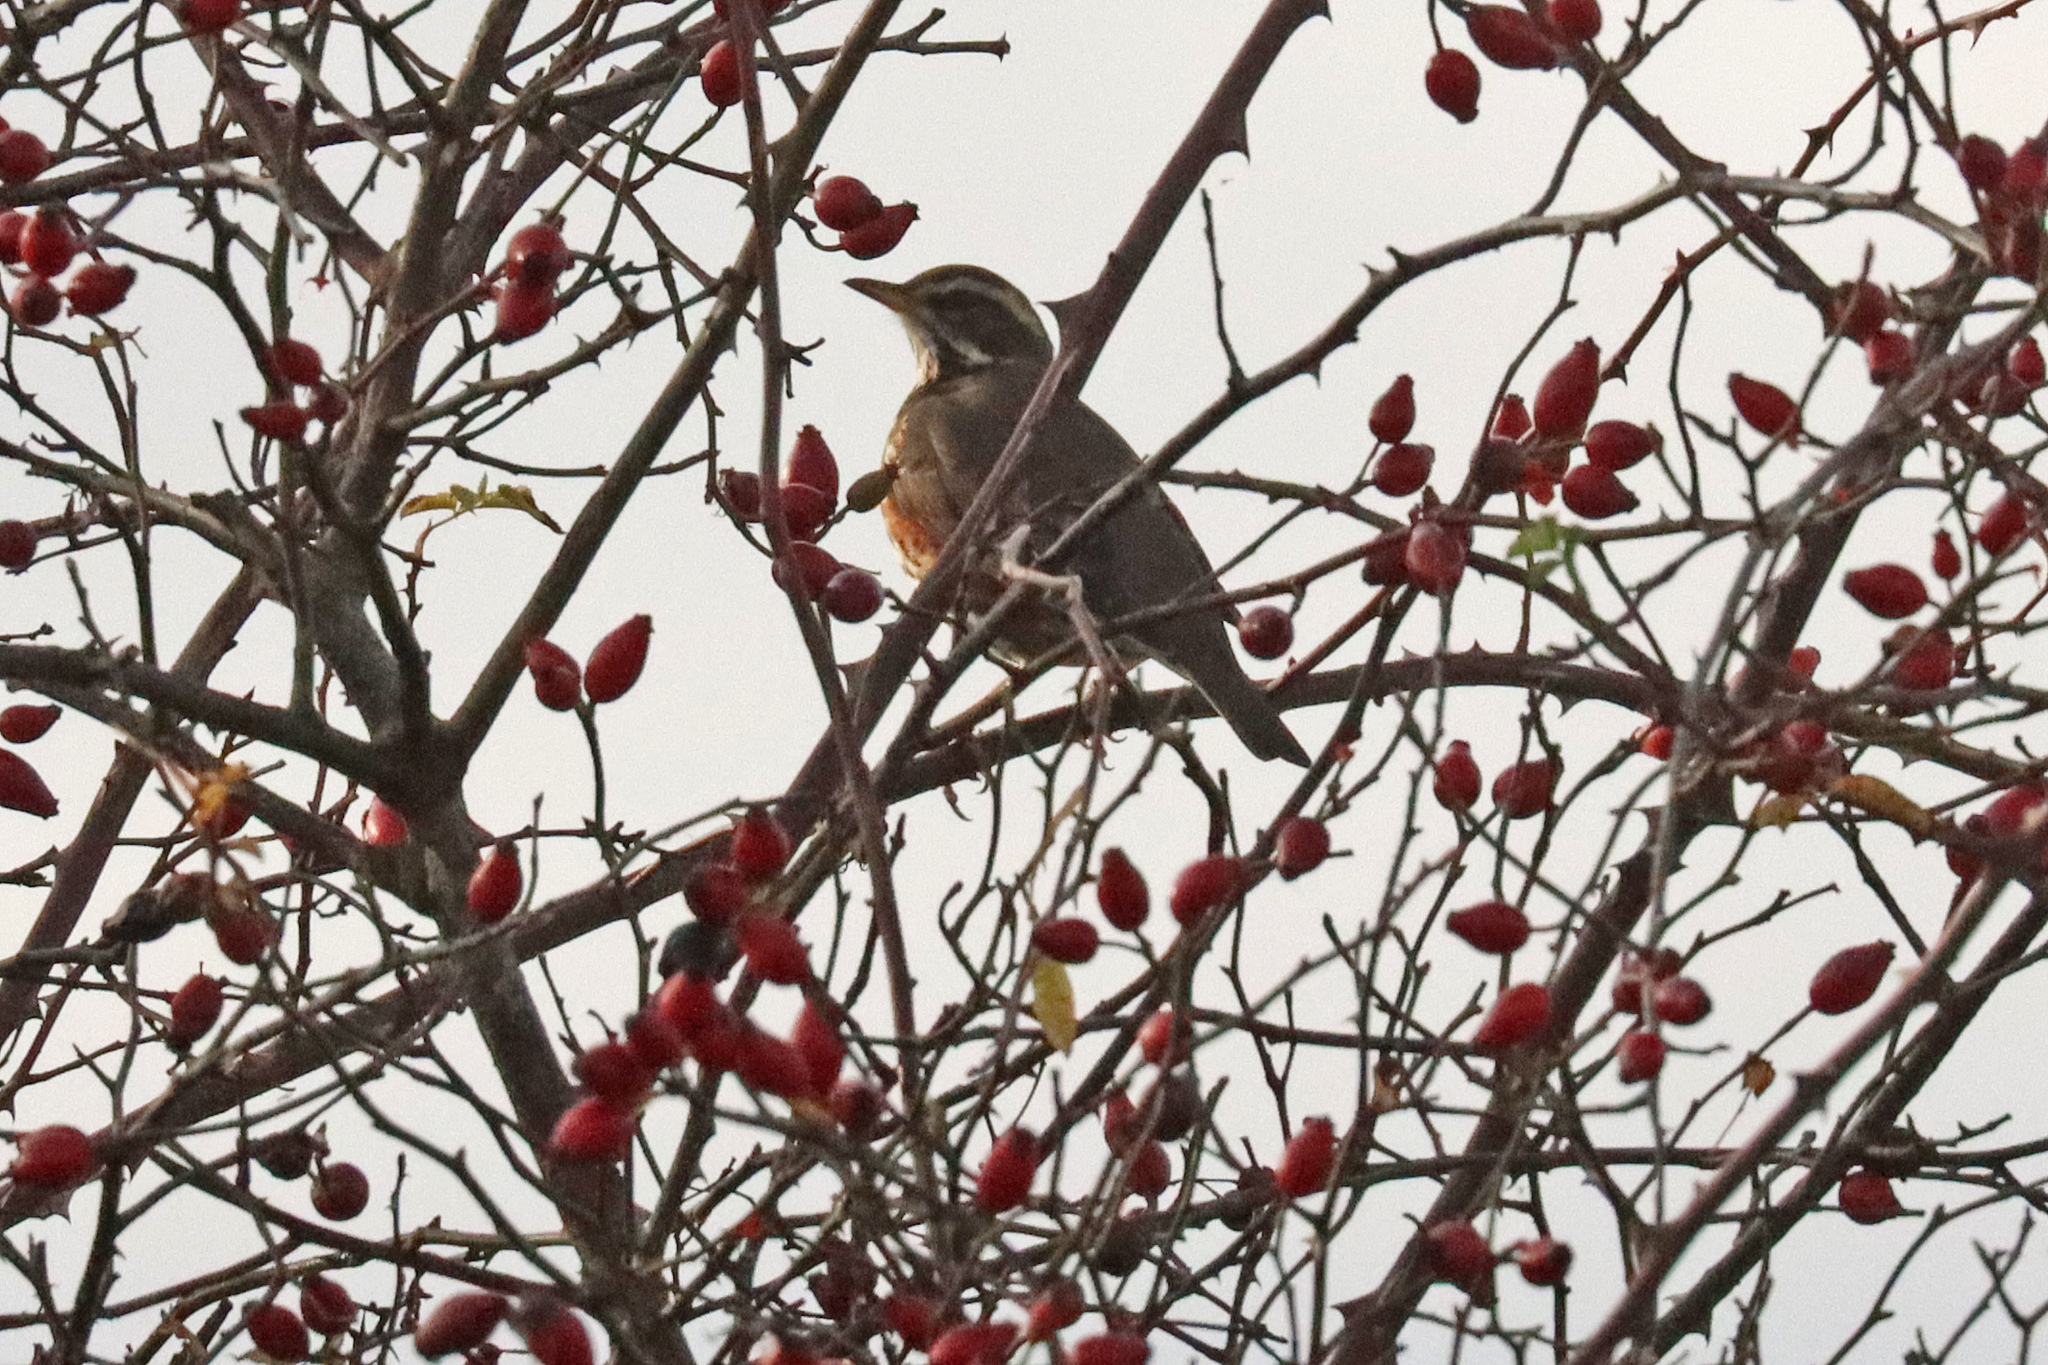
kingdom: Animalia
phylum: Chordata
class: Aves
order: Passeriformes
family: Turdidae
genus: Turdus
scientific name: Turdus iliacus
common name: Redwing
